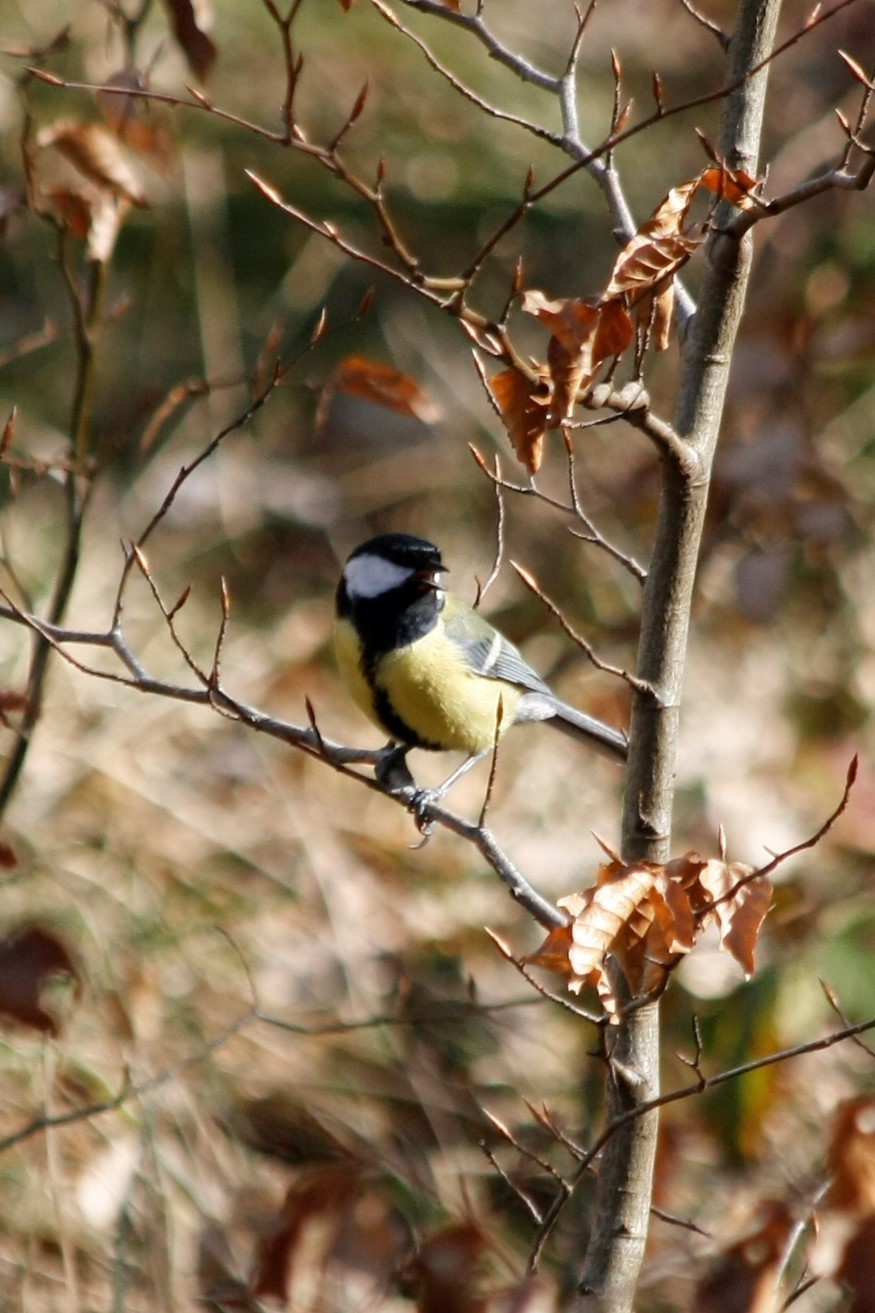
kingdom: Animalia
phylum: Chordata
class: Aves
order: Passeriformes
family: Paridae
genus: Parus
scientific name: Parus major
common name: Great tit
